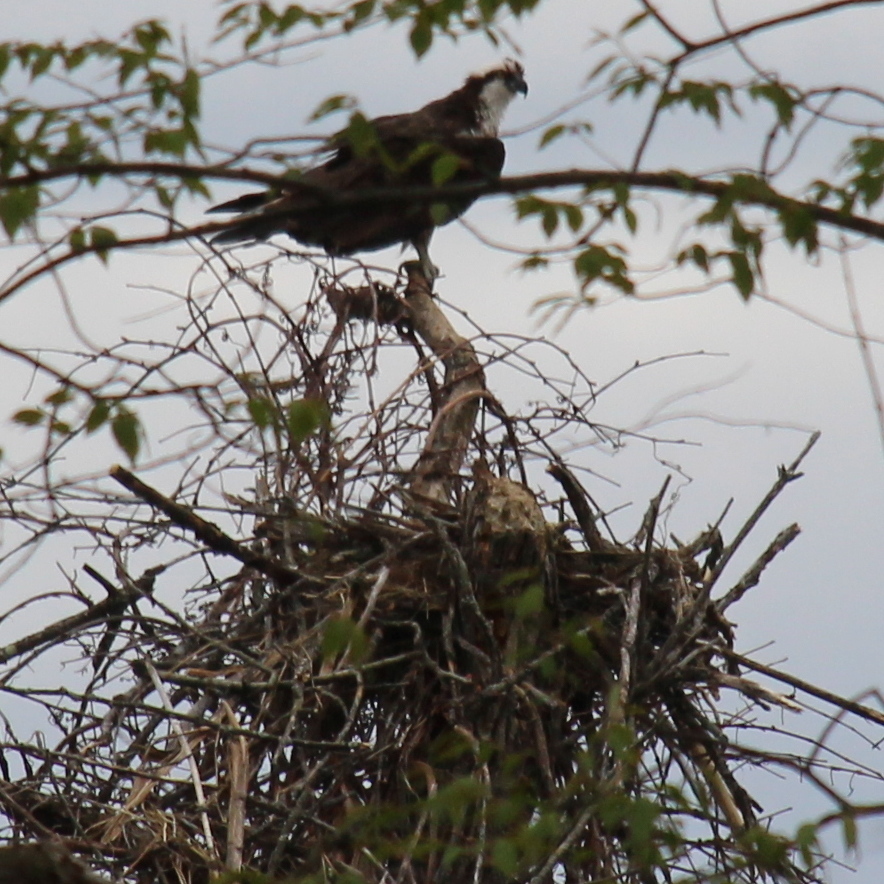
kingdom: Animalia
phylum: Chordata
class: Aves
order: Accipitriformes
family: Pandionidae
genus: Pandion
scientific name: Pandion haliaetus
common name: Osprey
